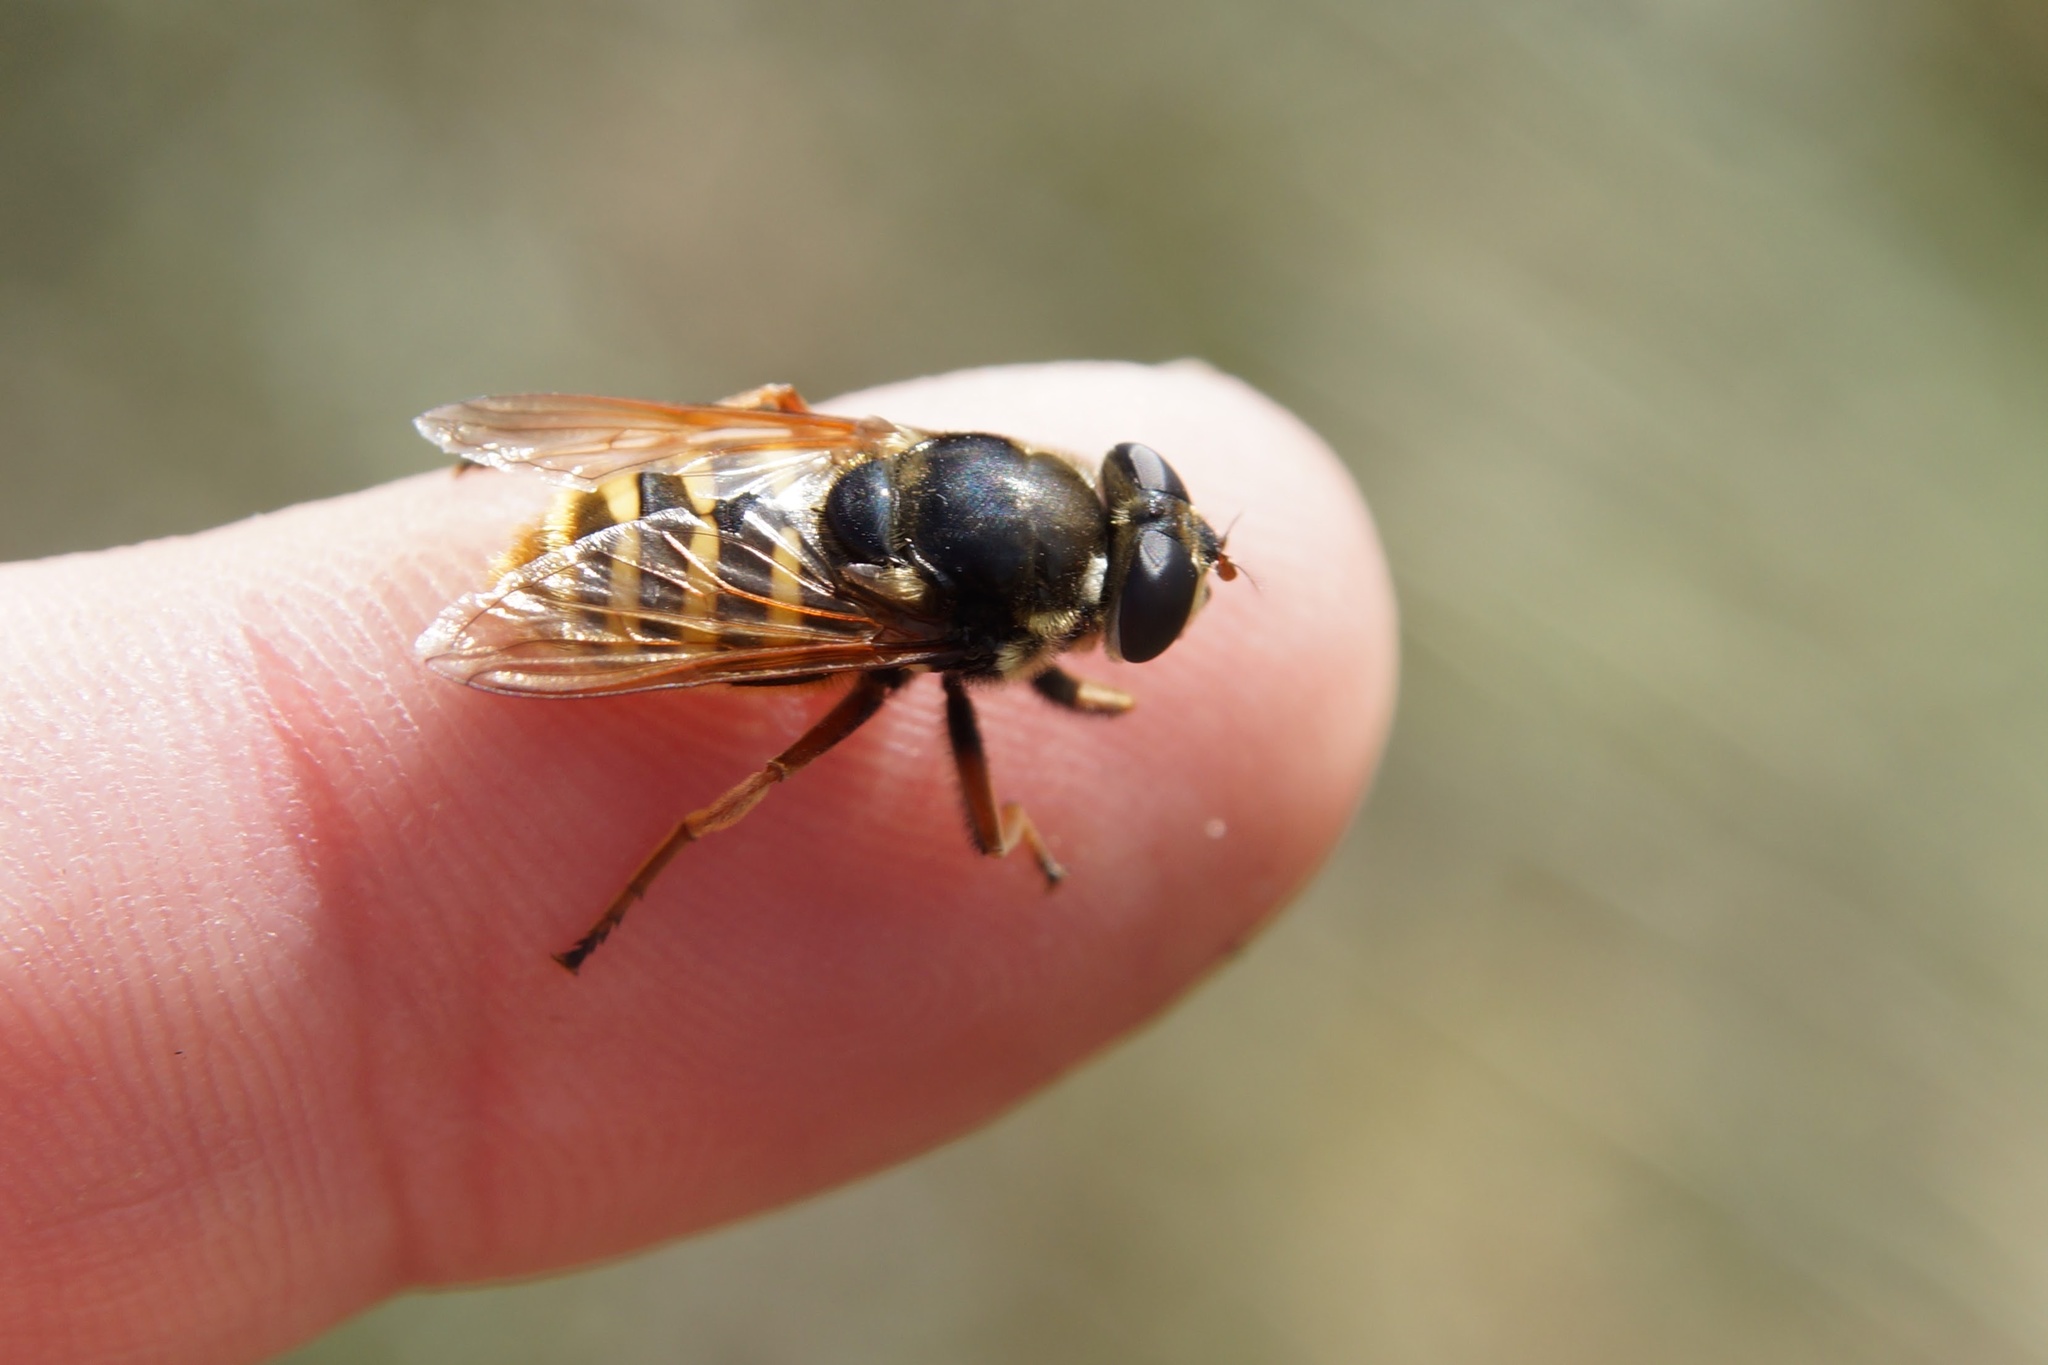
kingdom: Animalia
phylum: Arthropoda
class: Insecta
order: Diptera
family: Syrphidae
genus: Sericomyia
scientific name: Sericomyia silentis
